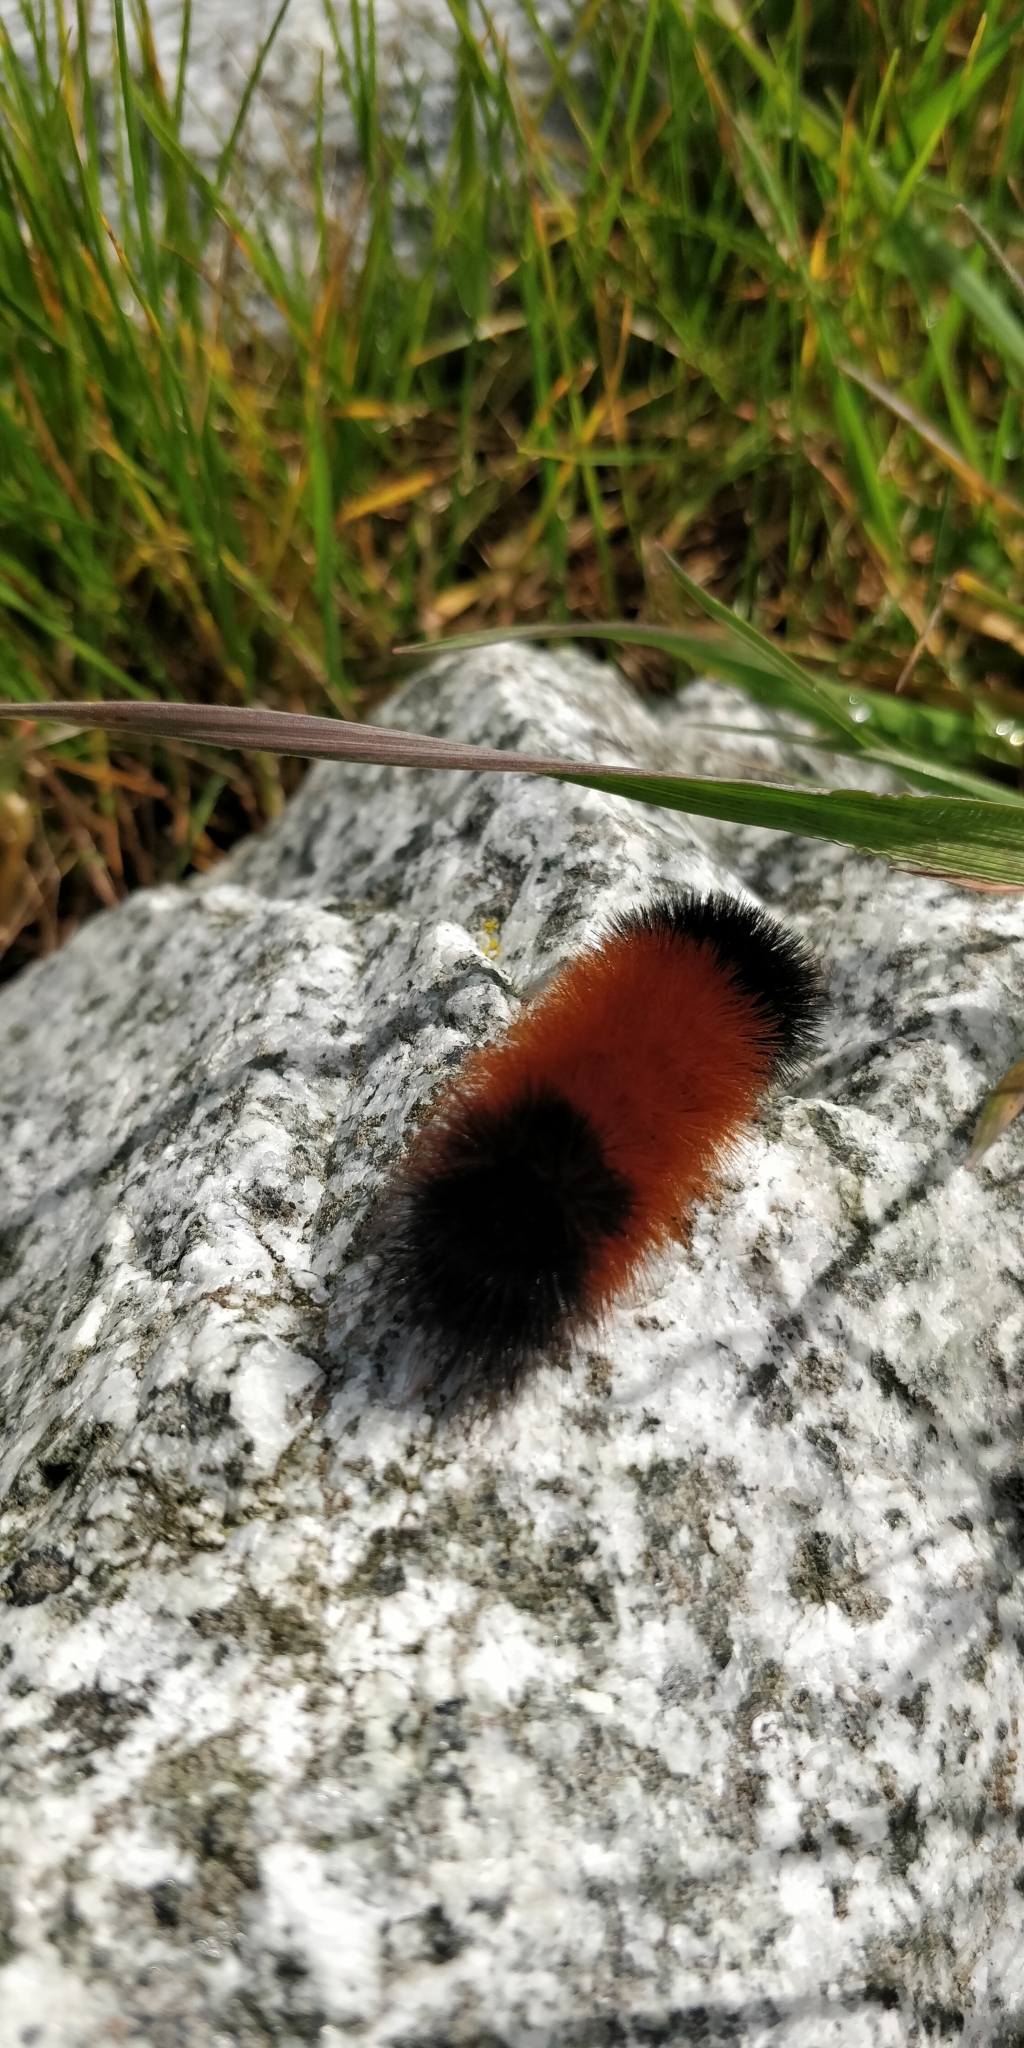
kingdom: Animalia
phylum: Arthropoda
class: Insecta
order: Lepidoptera
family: Erebidae
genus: Pyrrharctia
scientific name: Pyrrharctia isabella
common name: Isabella tiger moth
